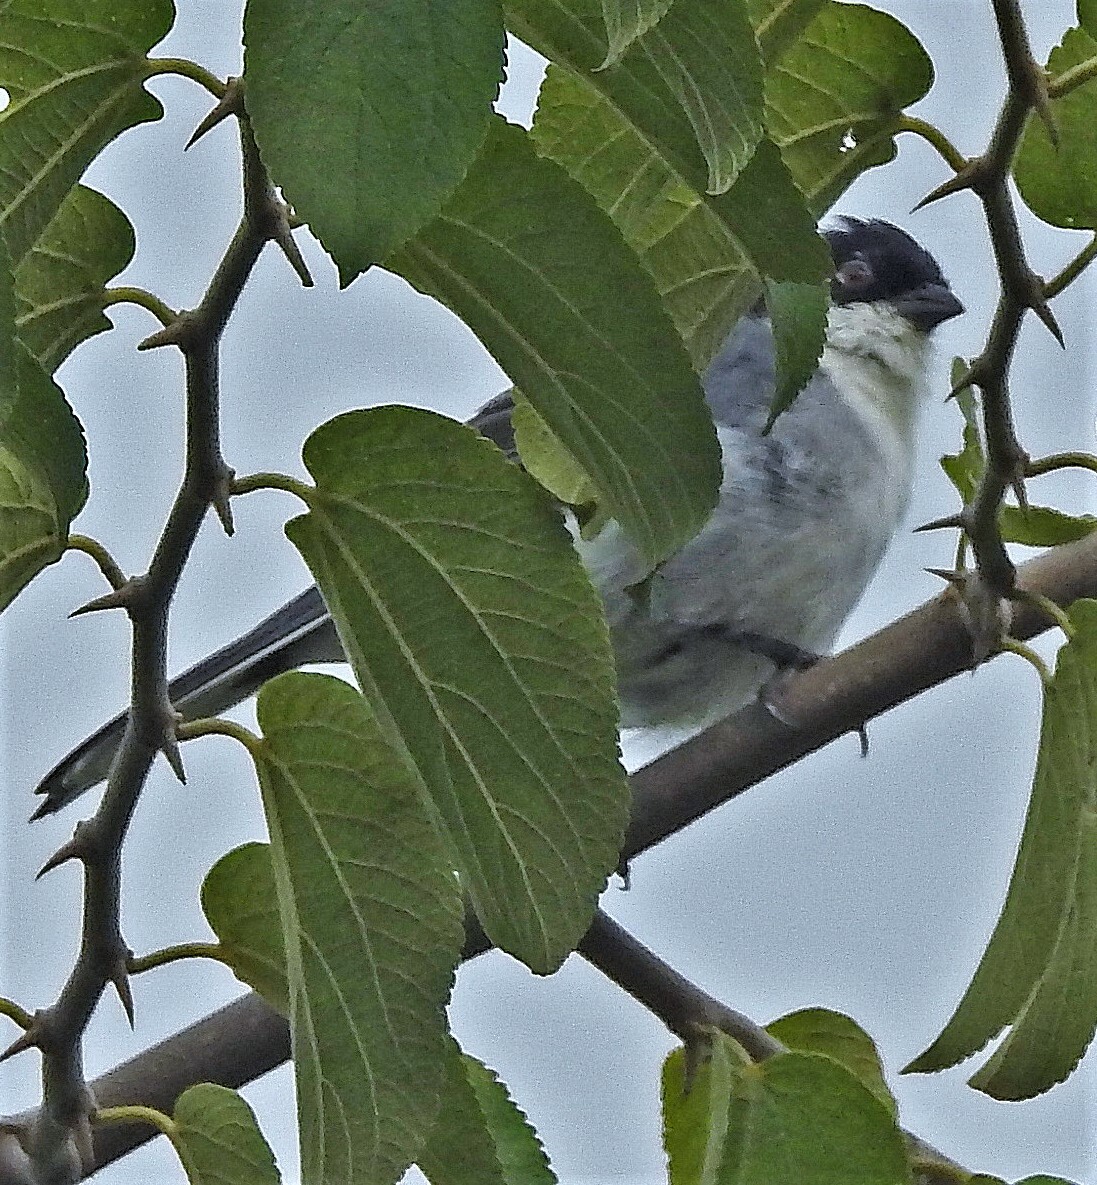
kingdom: Animalia
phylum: Chordata
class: Aves
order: Passeriformes
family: Thraupidae
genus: Microspingus
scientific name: Microspingus melanoleucus
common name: Black-capped warbling-finch
